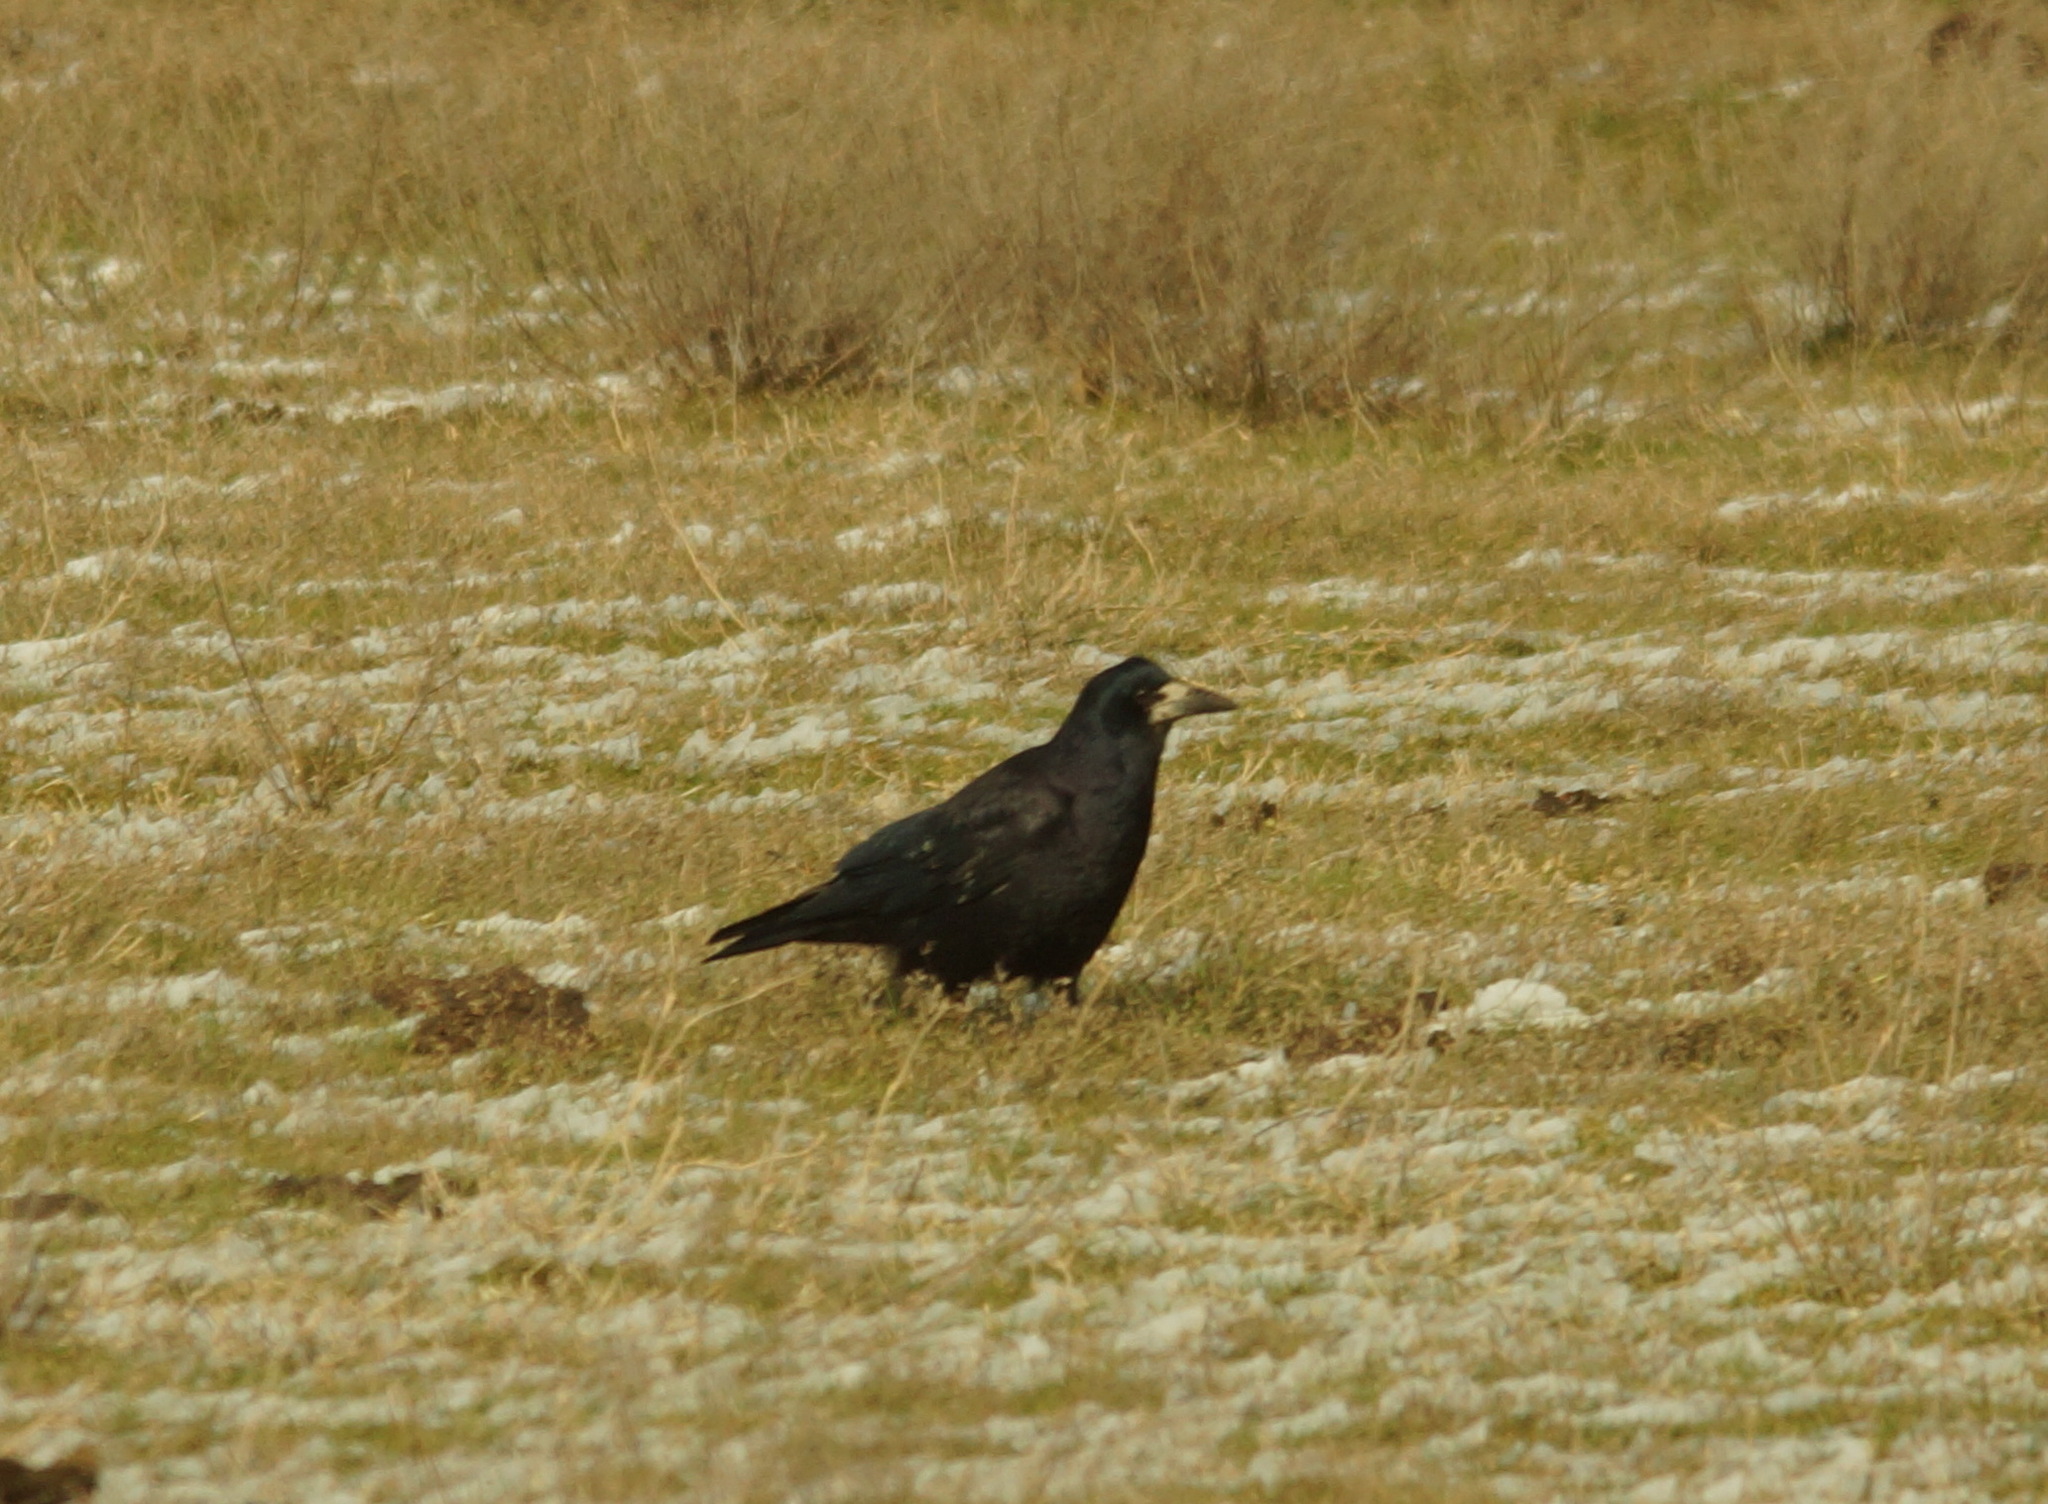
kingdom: Animalia
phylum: Chordata
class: Aves
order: Passeriformes
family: Corvidae
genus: Corvus
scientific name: Corvus frugilegus
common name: Rook
